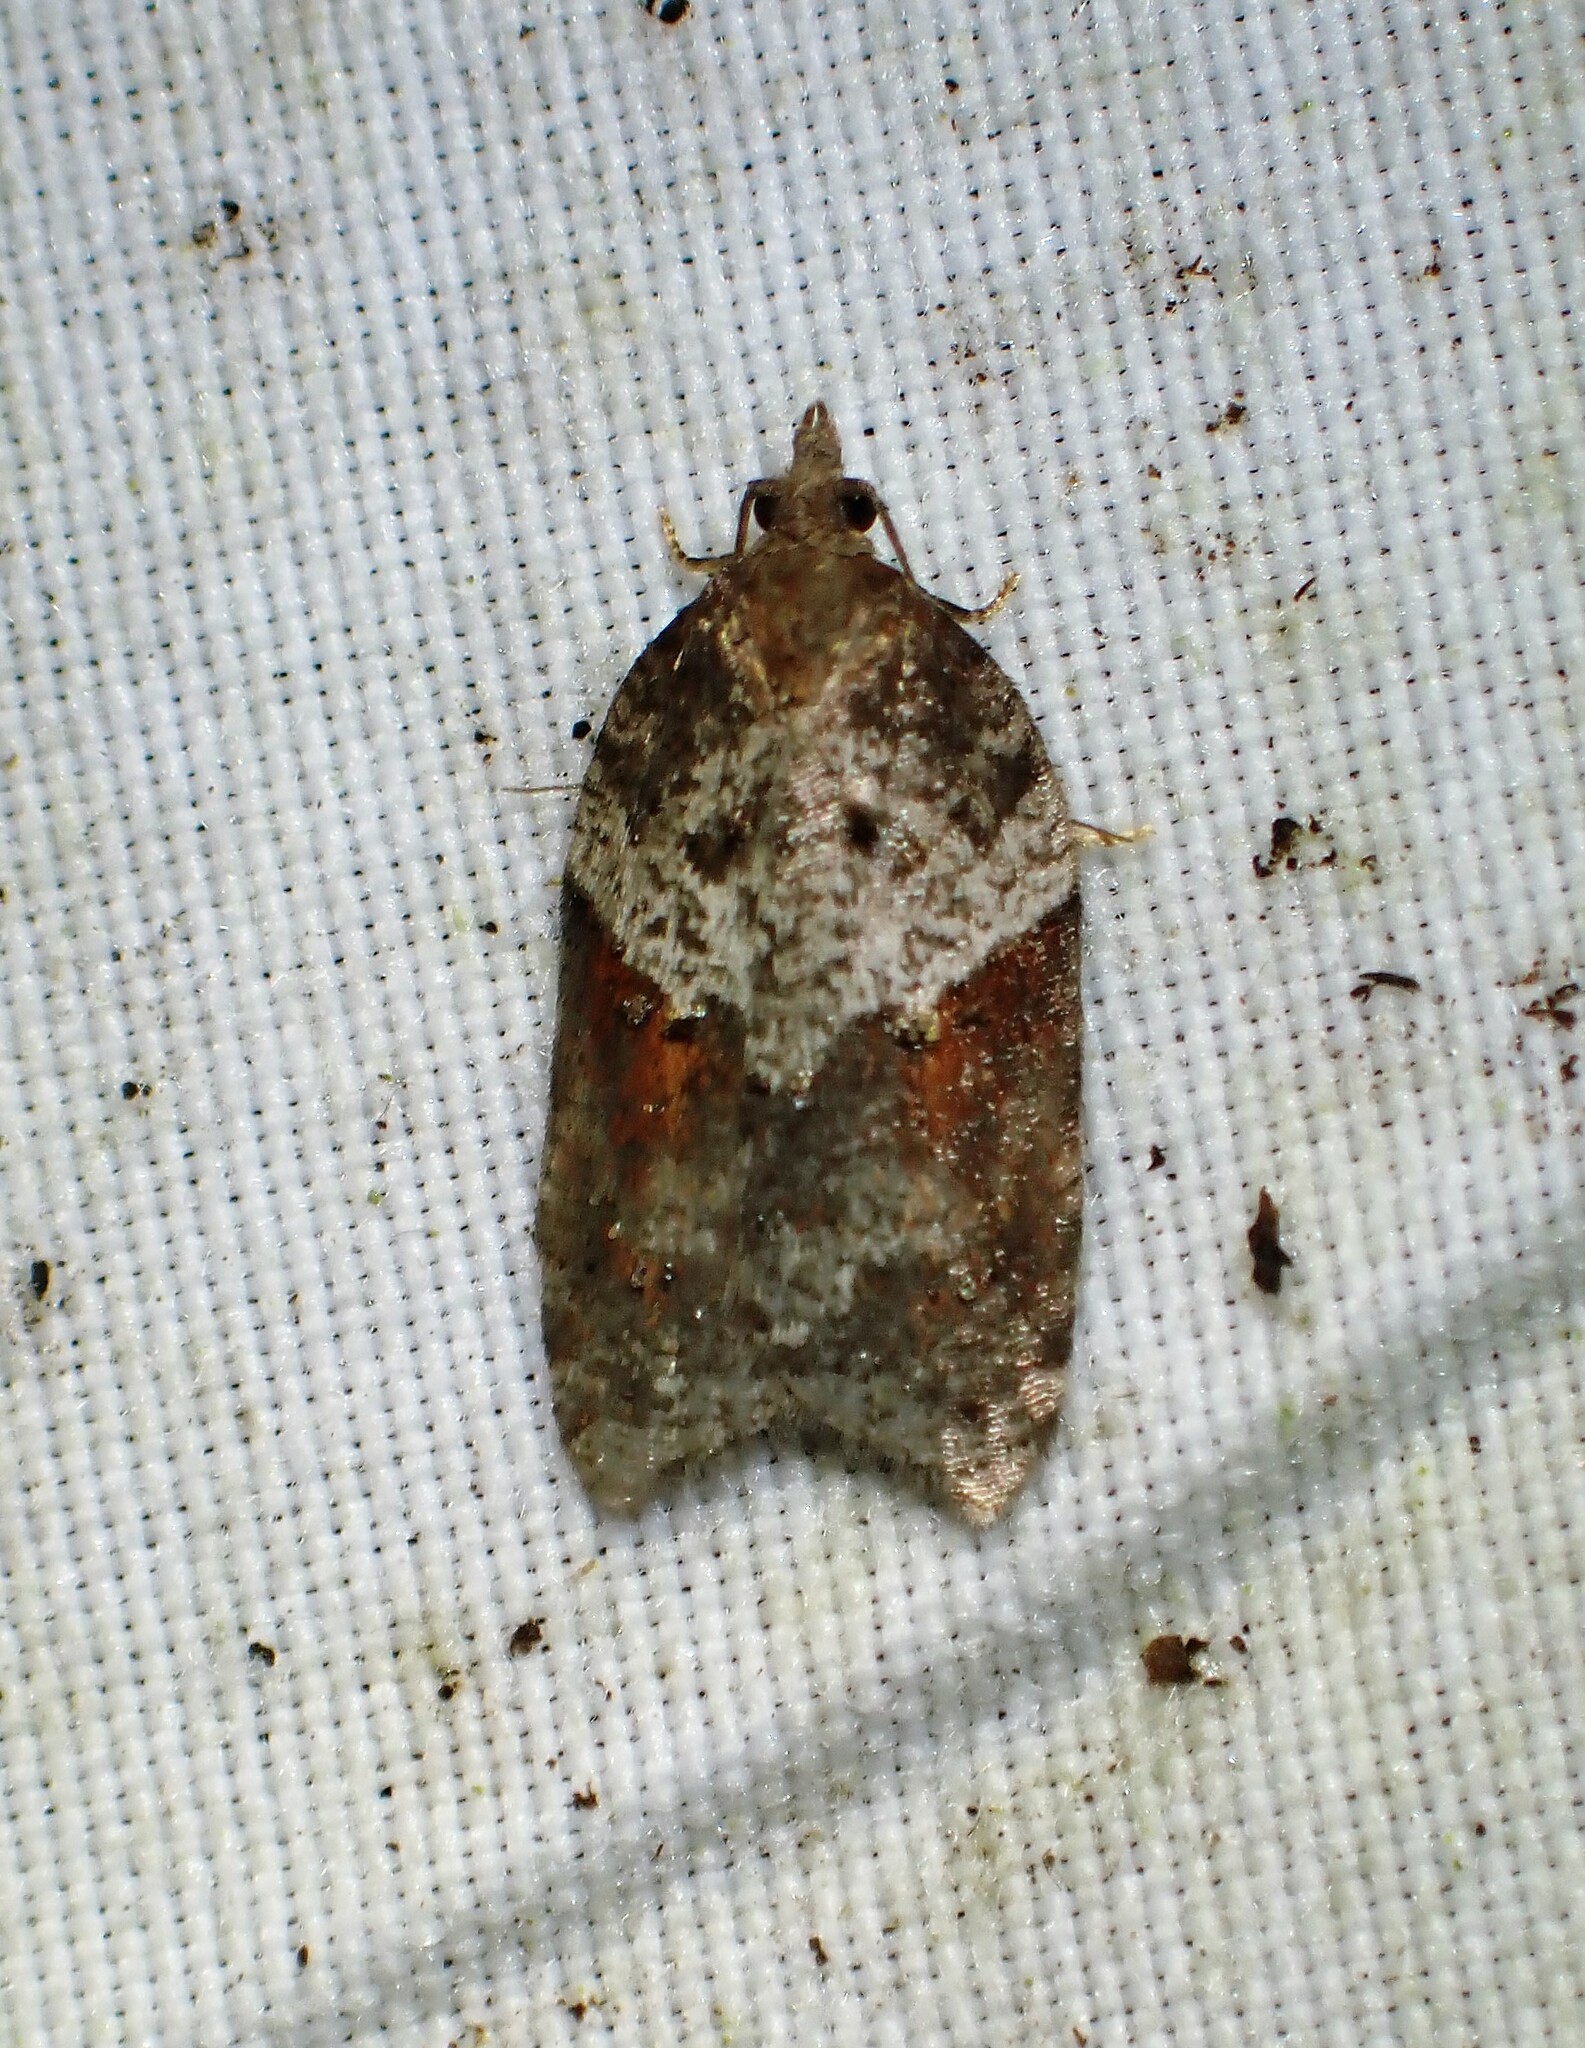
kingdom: Animalia
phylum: Arthropoda
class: Insecta
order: Lepidoptera
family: Tortricidae
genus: Acleris
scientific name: Acleris macdunnoughi
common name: Macdunnough's acleris
